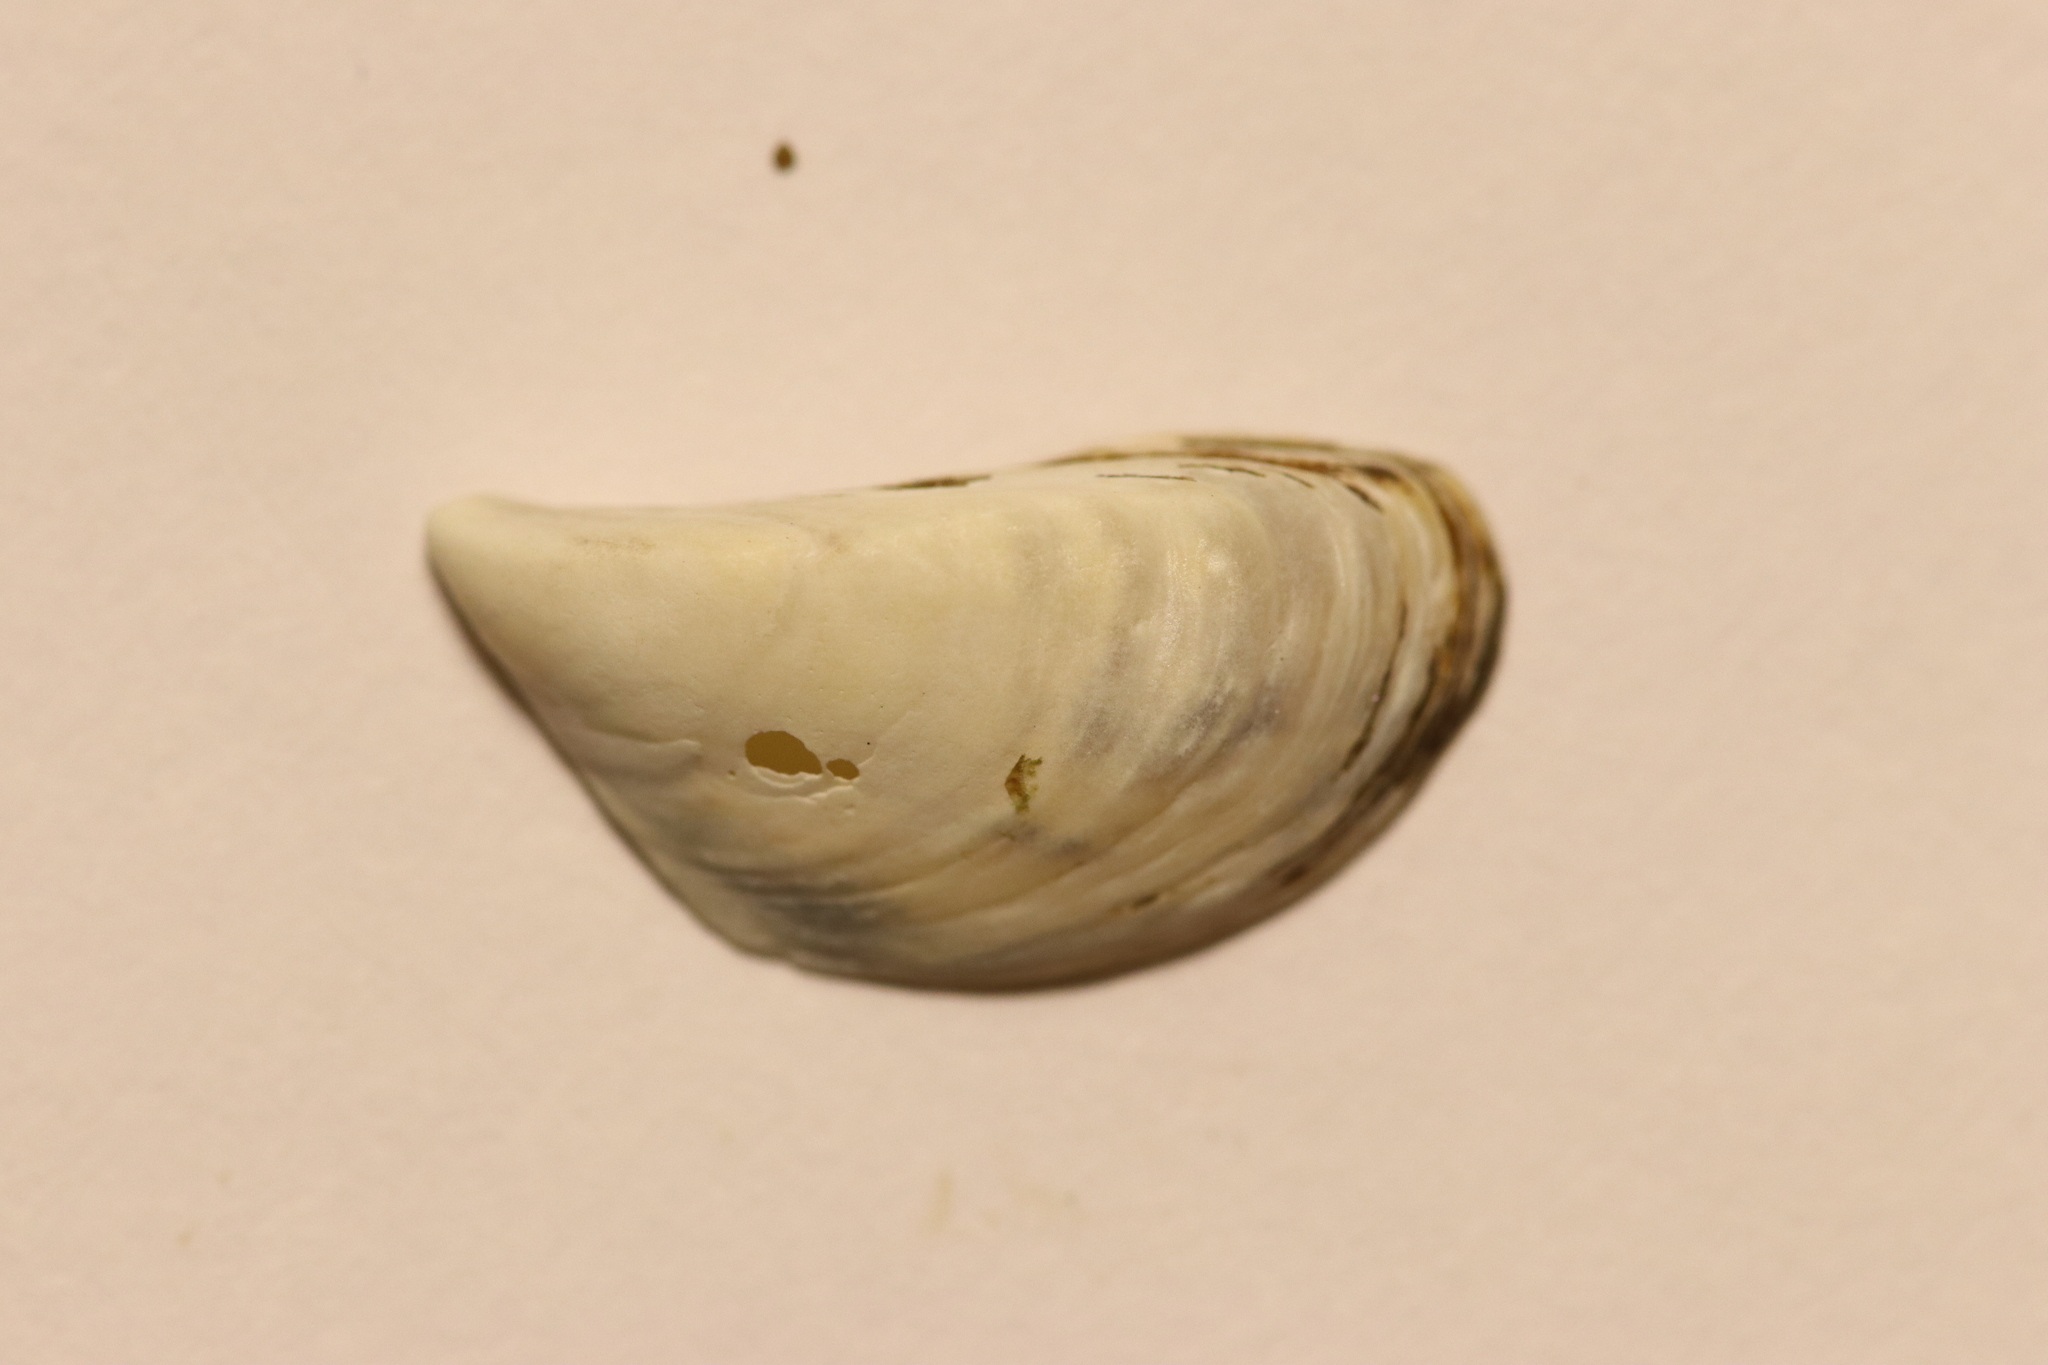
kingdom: Animalia
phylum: Mollusca
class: Bivalvia
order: Myida
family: Dreissenidae
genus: Dreissena
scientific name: Dreissena polymorpha
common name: Zebra mussel
